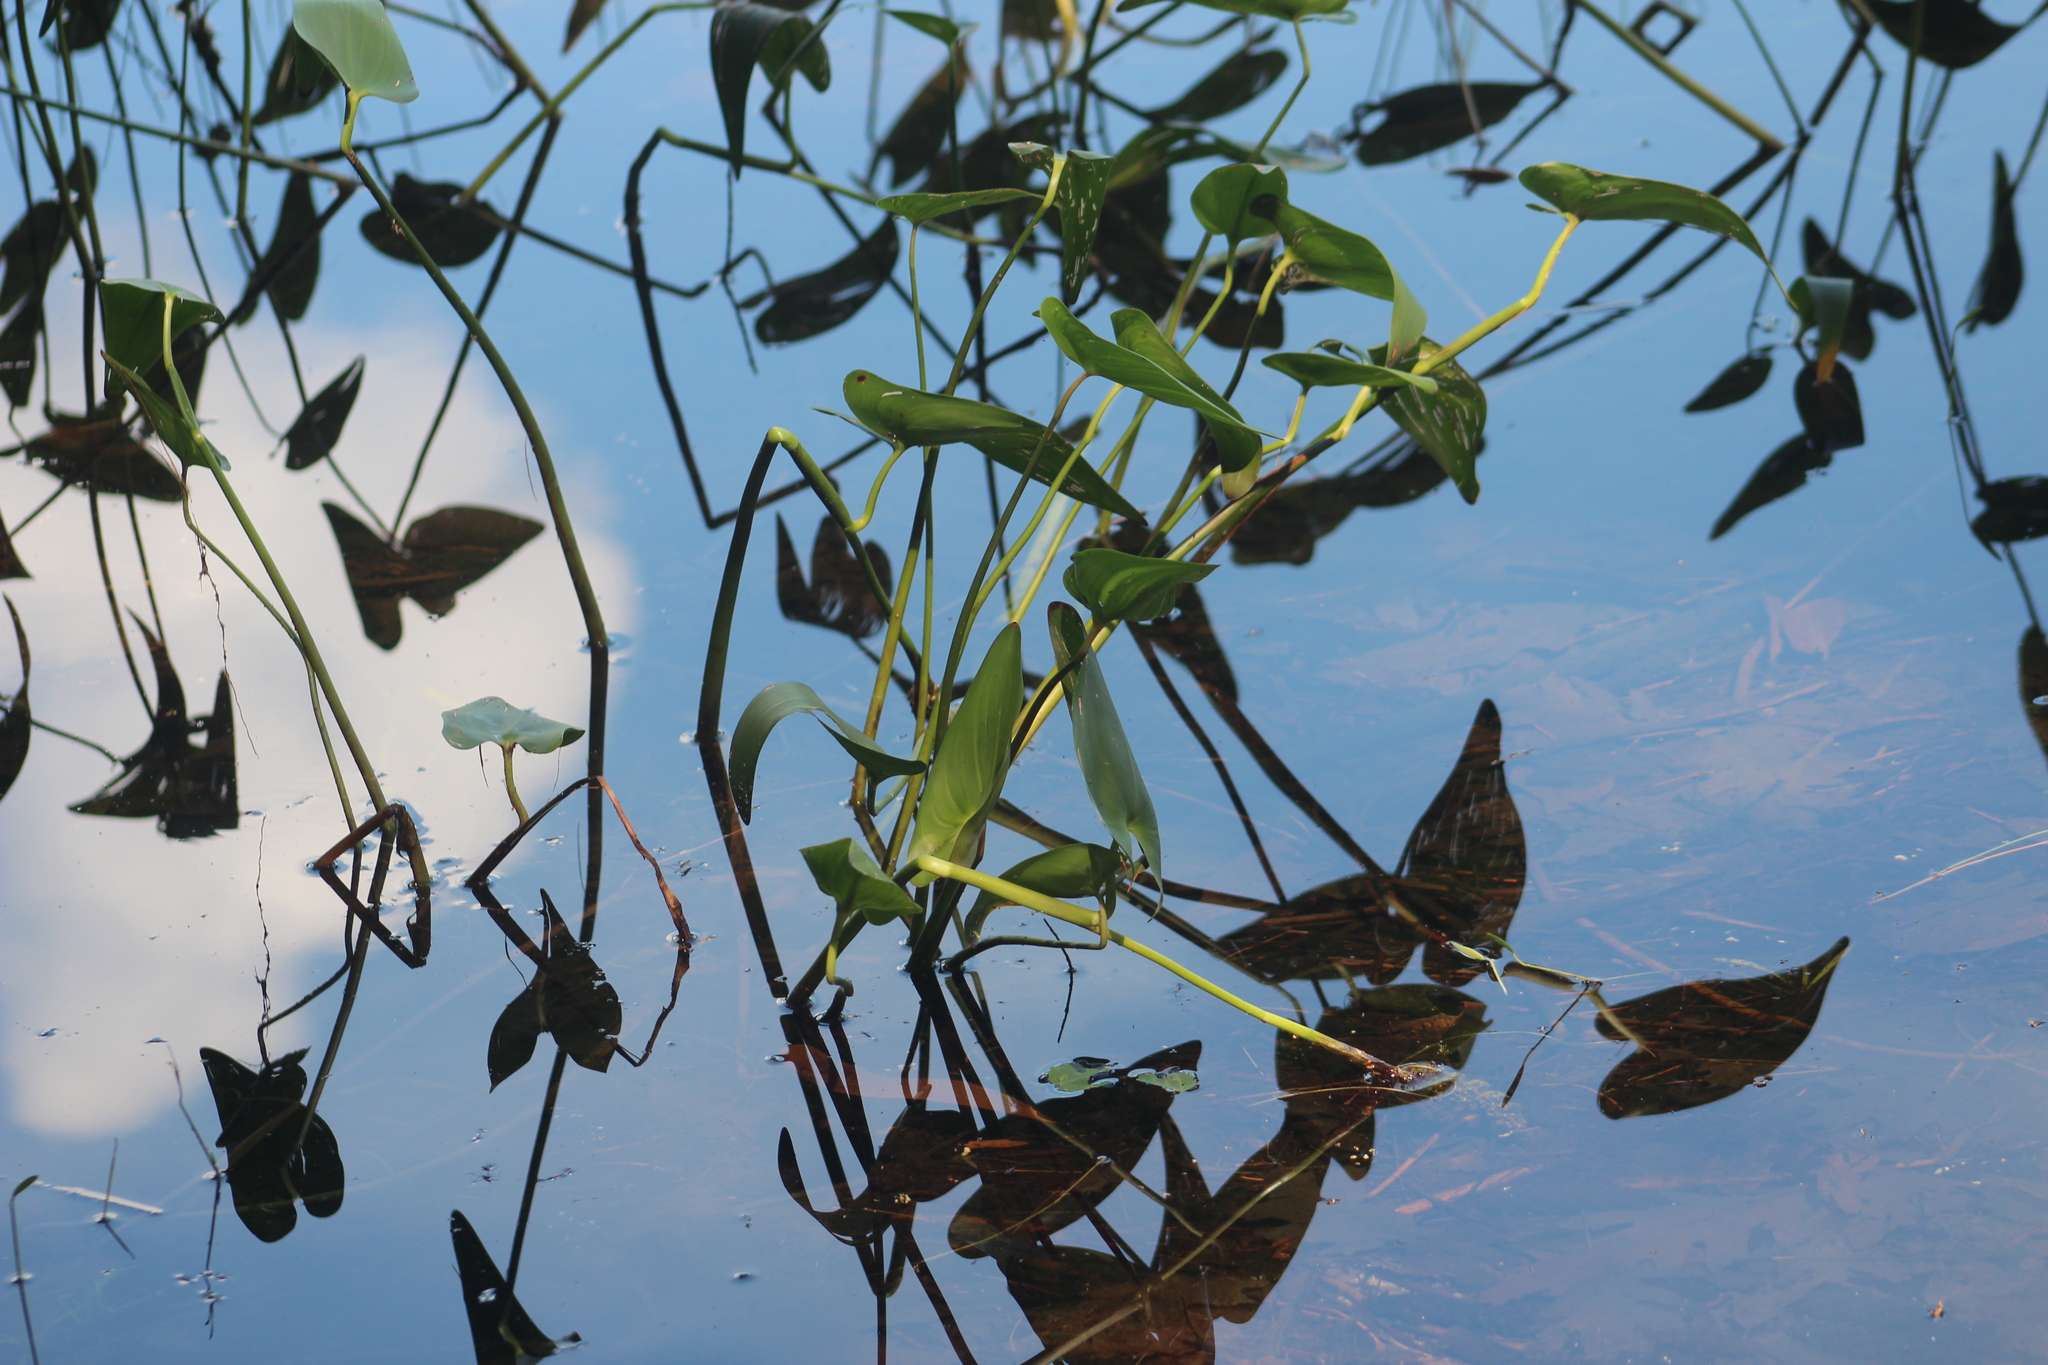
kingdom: Plantae
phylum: Tracheophyta
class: Liliopsida
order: Commelinales
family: Pontederiaceae
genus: Pontederia
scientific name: Pontederia cordata
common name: Pickerelweed
